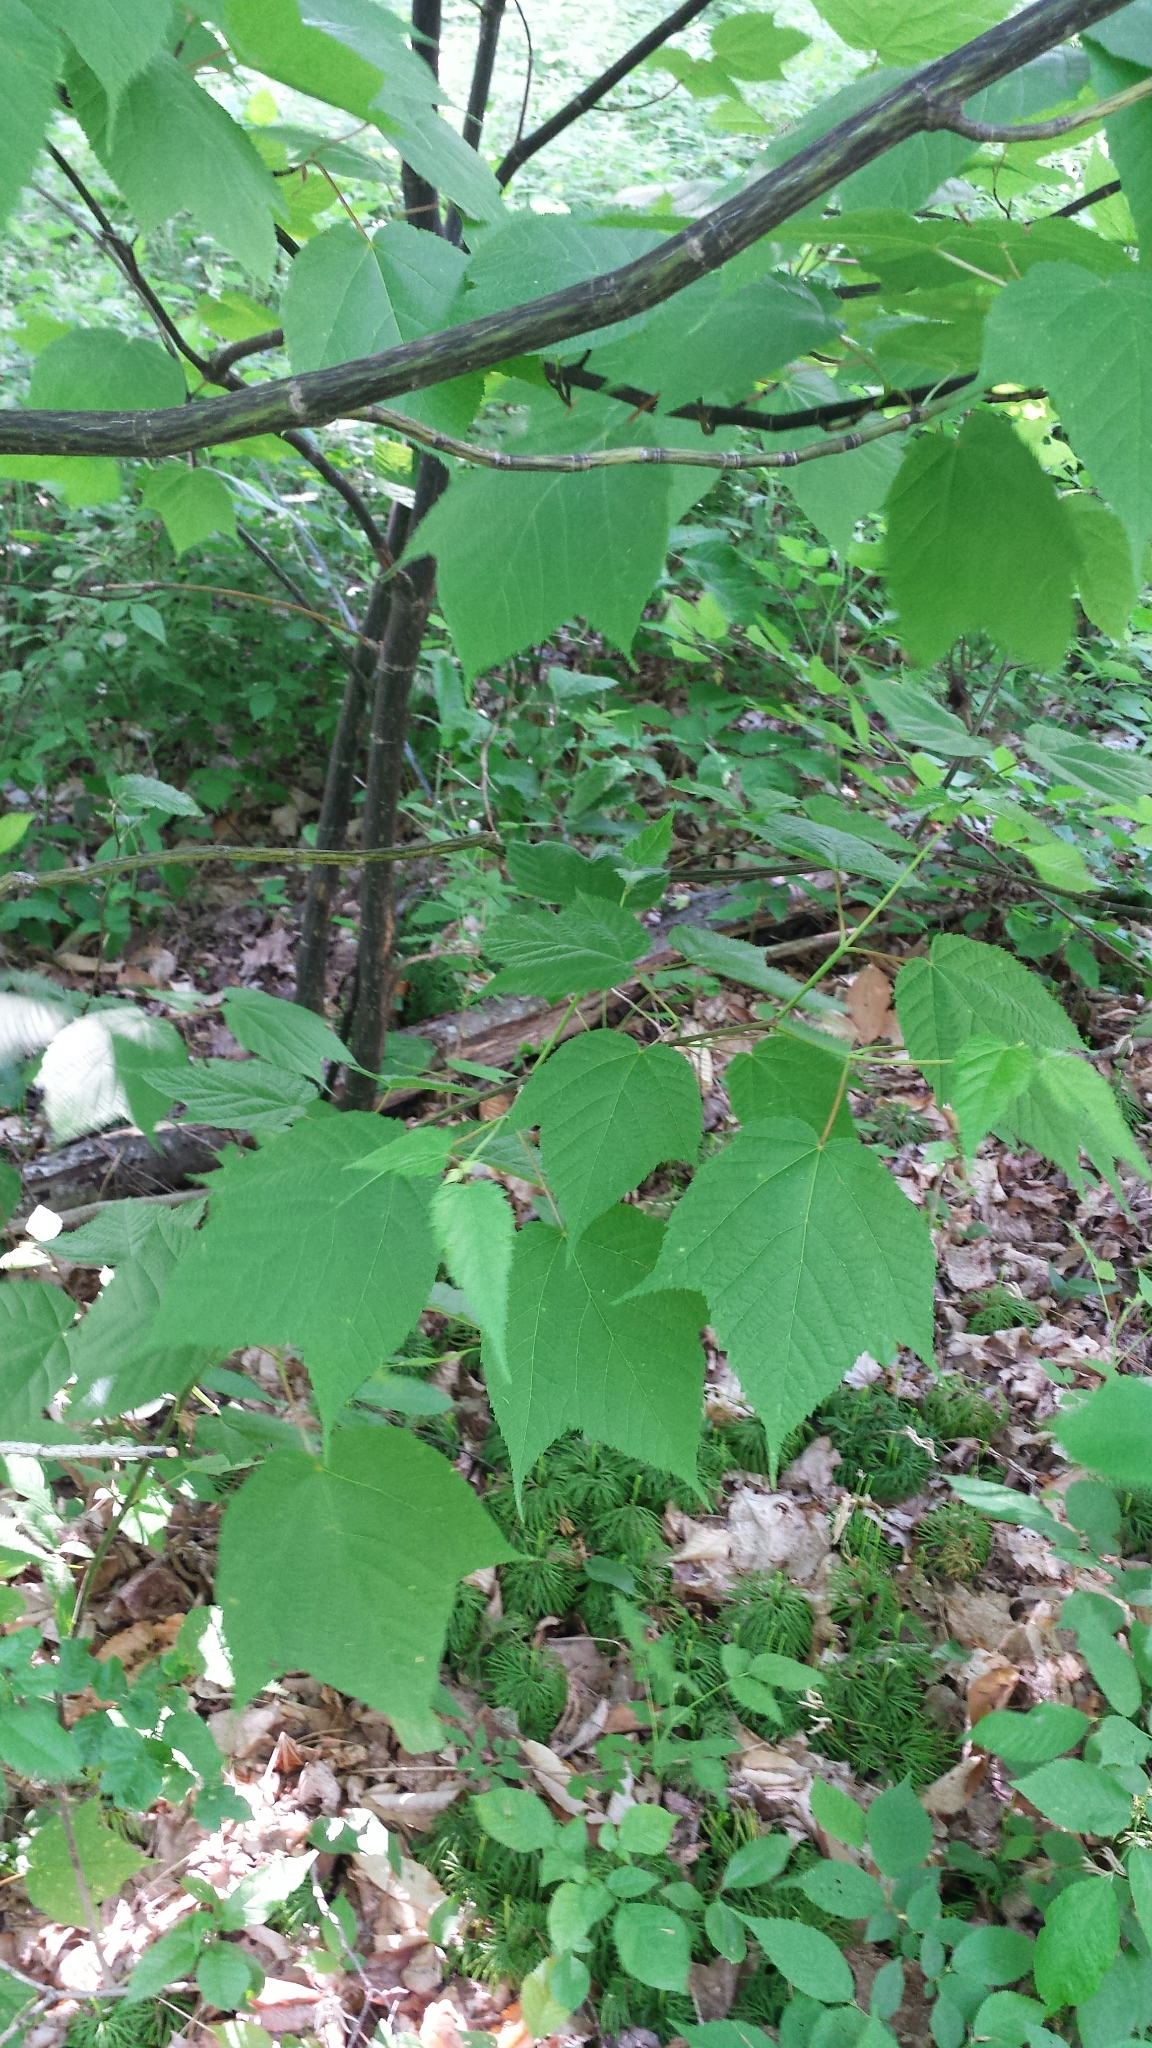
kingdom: Plantae
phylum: Tracheophyta
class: Magnoliopsida
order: Sapindales
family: Sapindaceae
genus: Acer
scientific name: Acer pensylvanicum
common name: Moosewood
